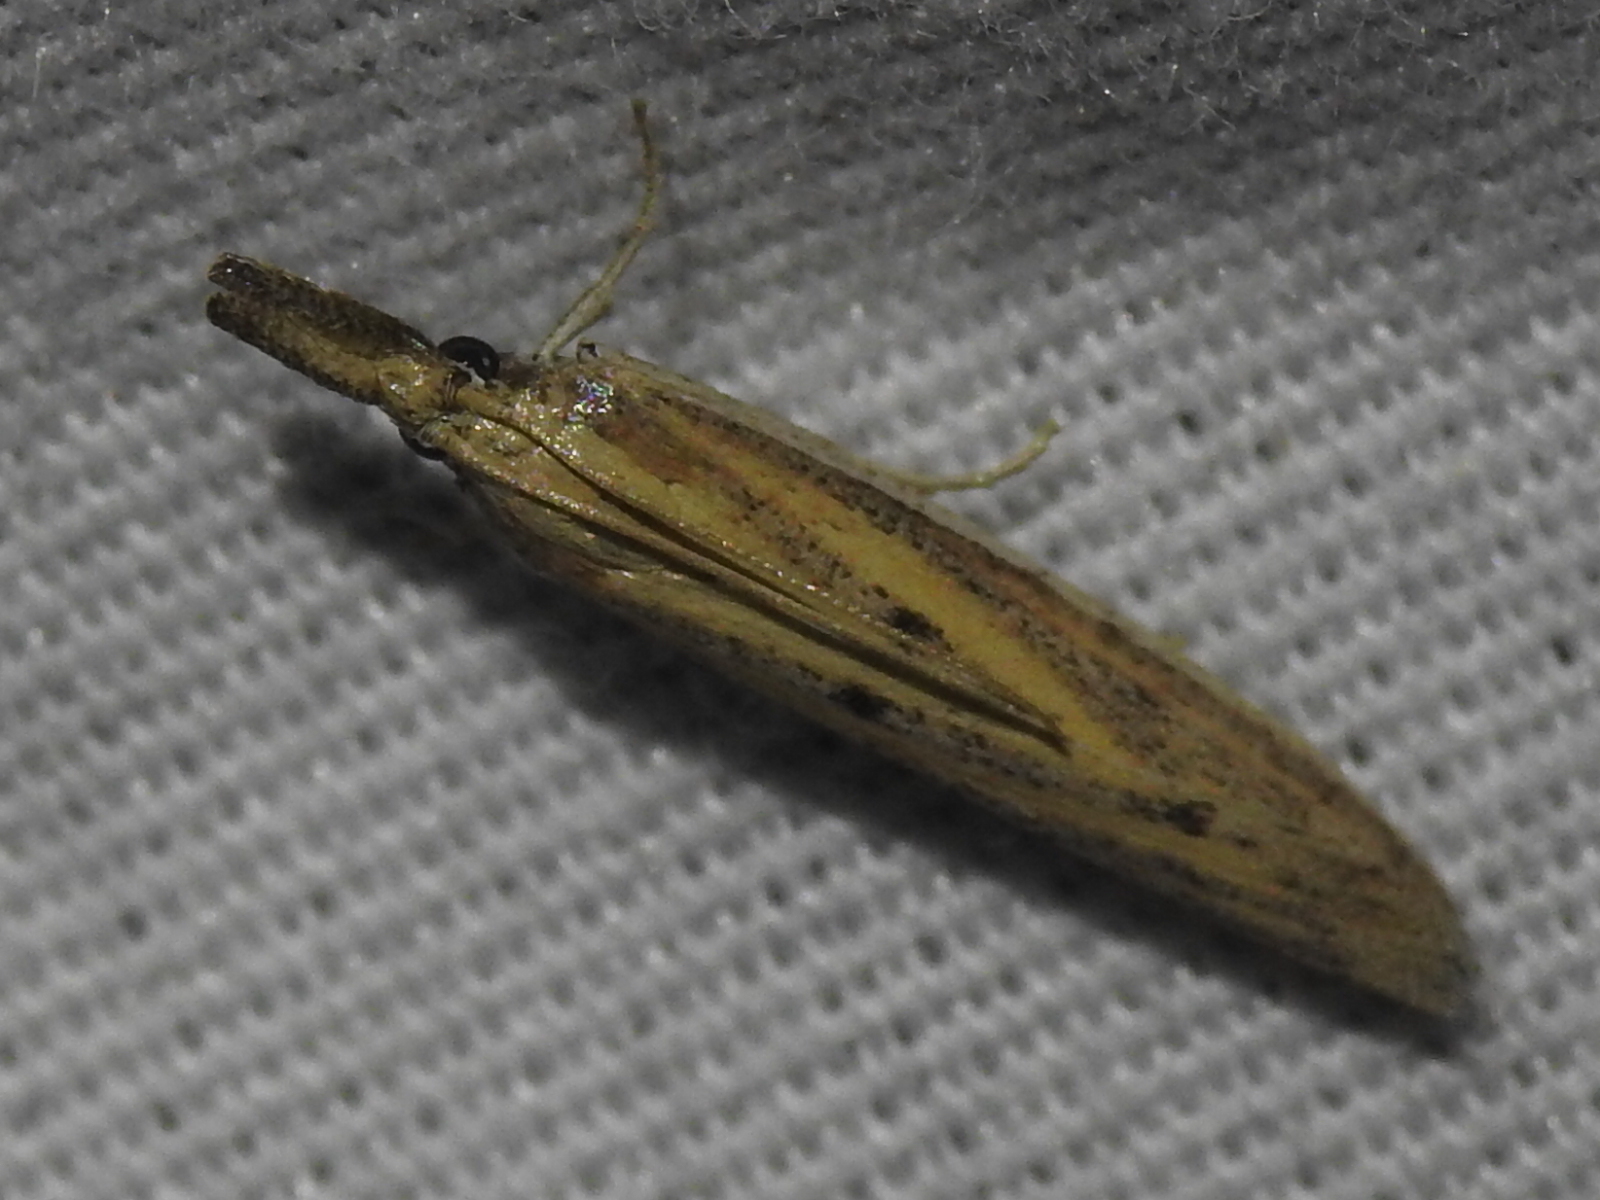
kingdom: Animalia
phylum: Arthropoda
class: Insecta
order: Lepidoptera
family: Pyralidae
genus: Bandera
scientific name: Bandera binotella
